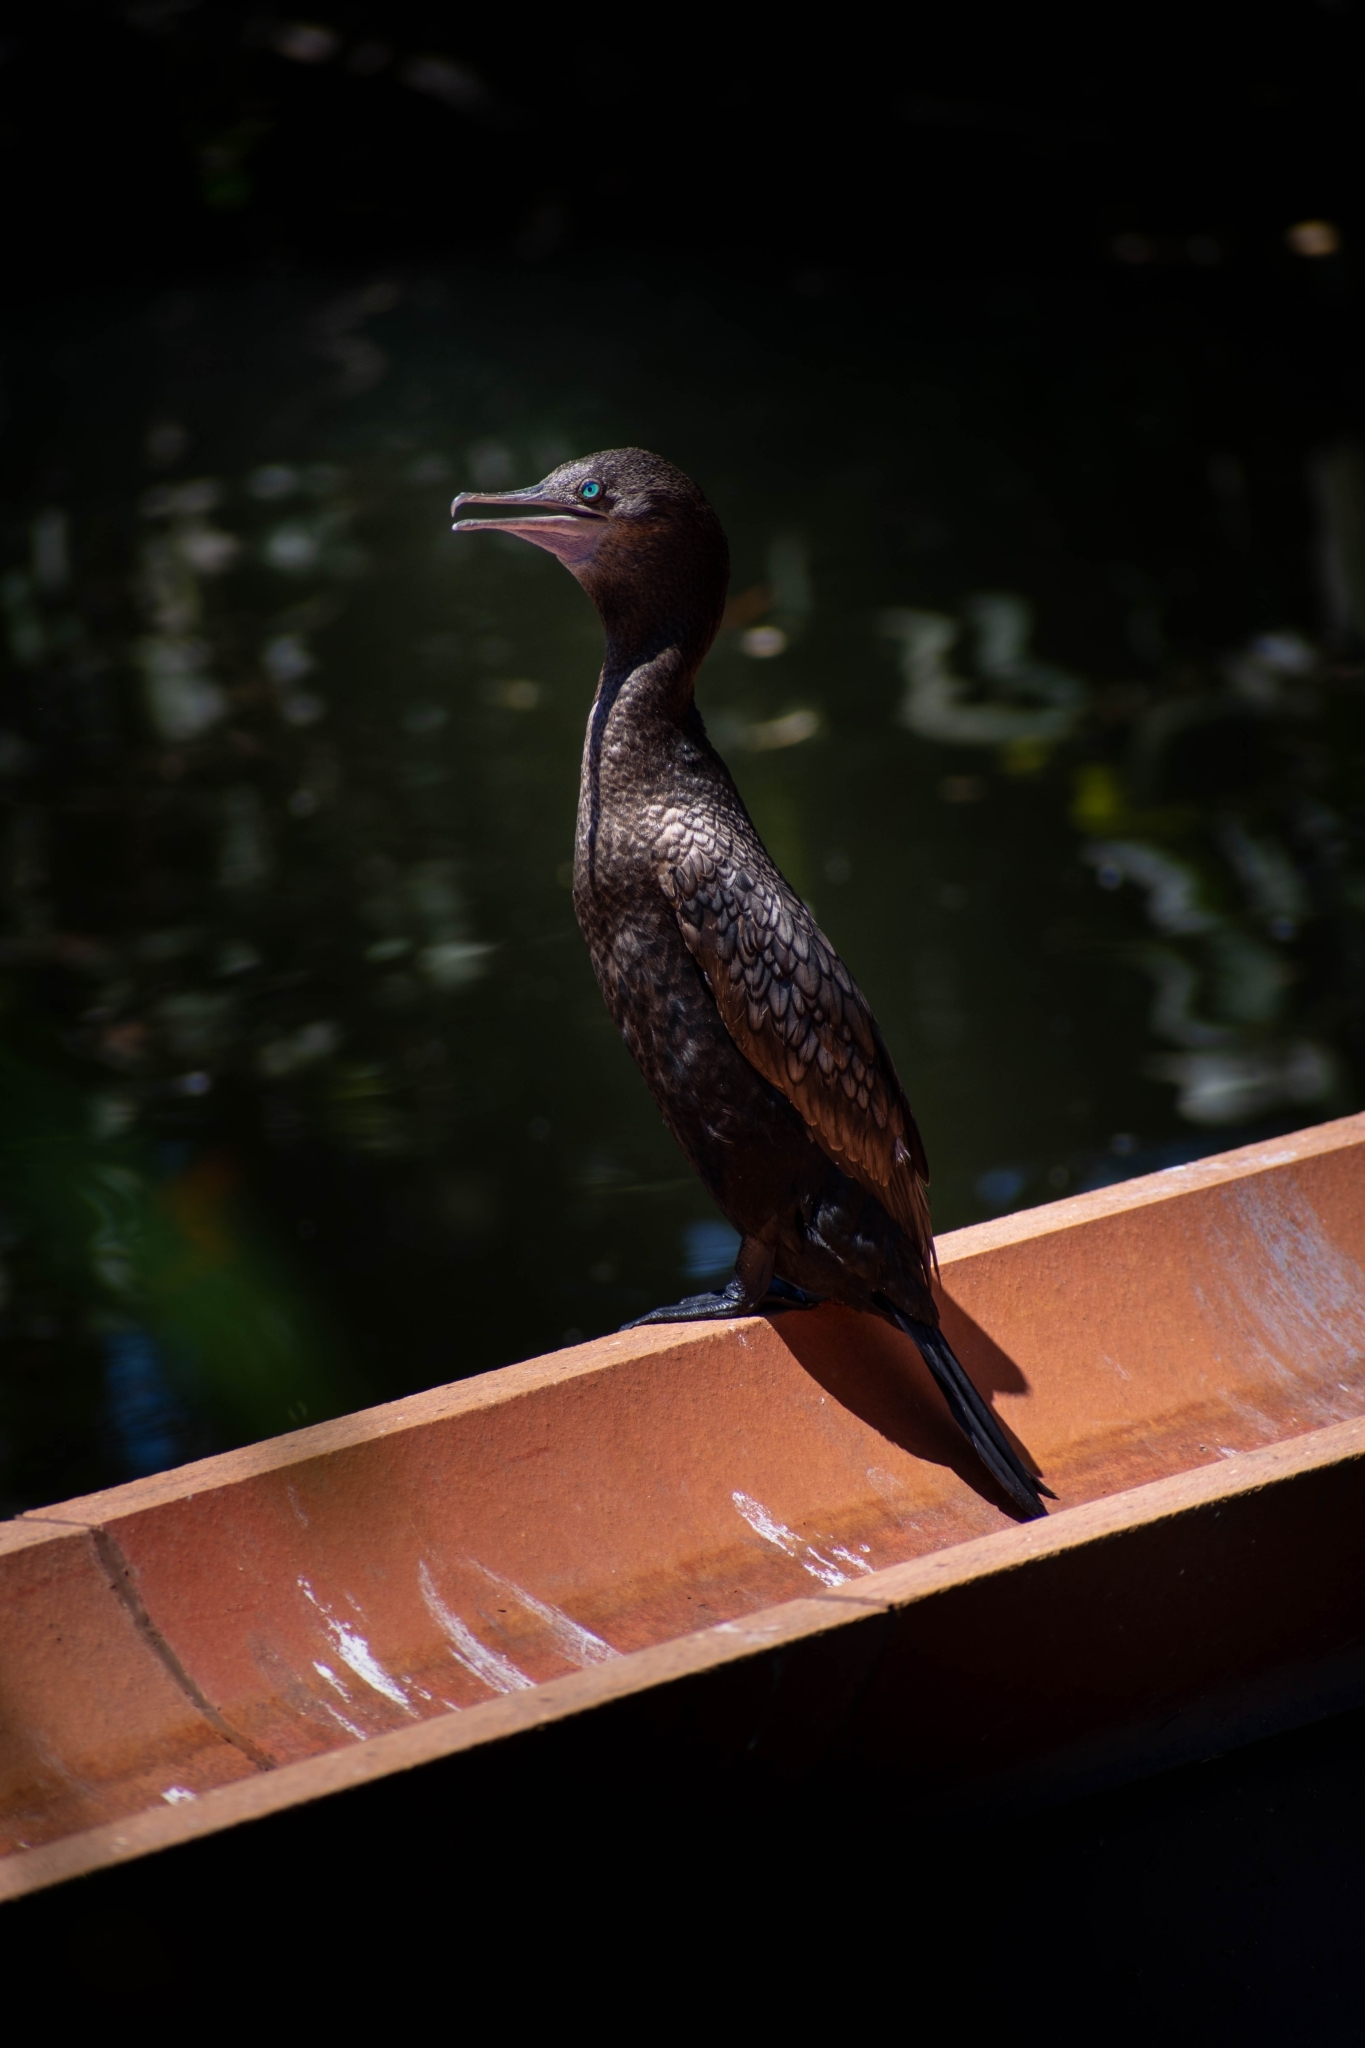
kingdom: Animalia
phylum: Chordata
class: Aves
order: Suliformes
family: Phalacrocoracidae
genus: Phalacrocorax
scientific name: Phalacrocorax sulcirostris
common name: Little black cormorant
